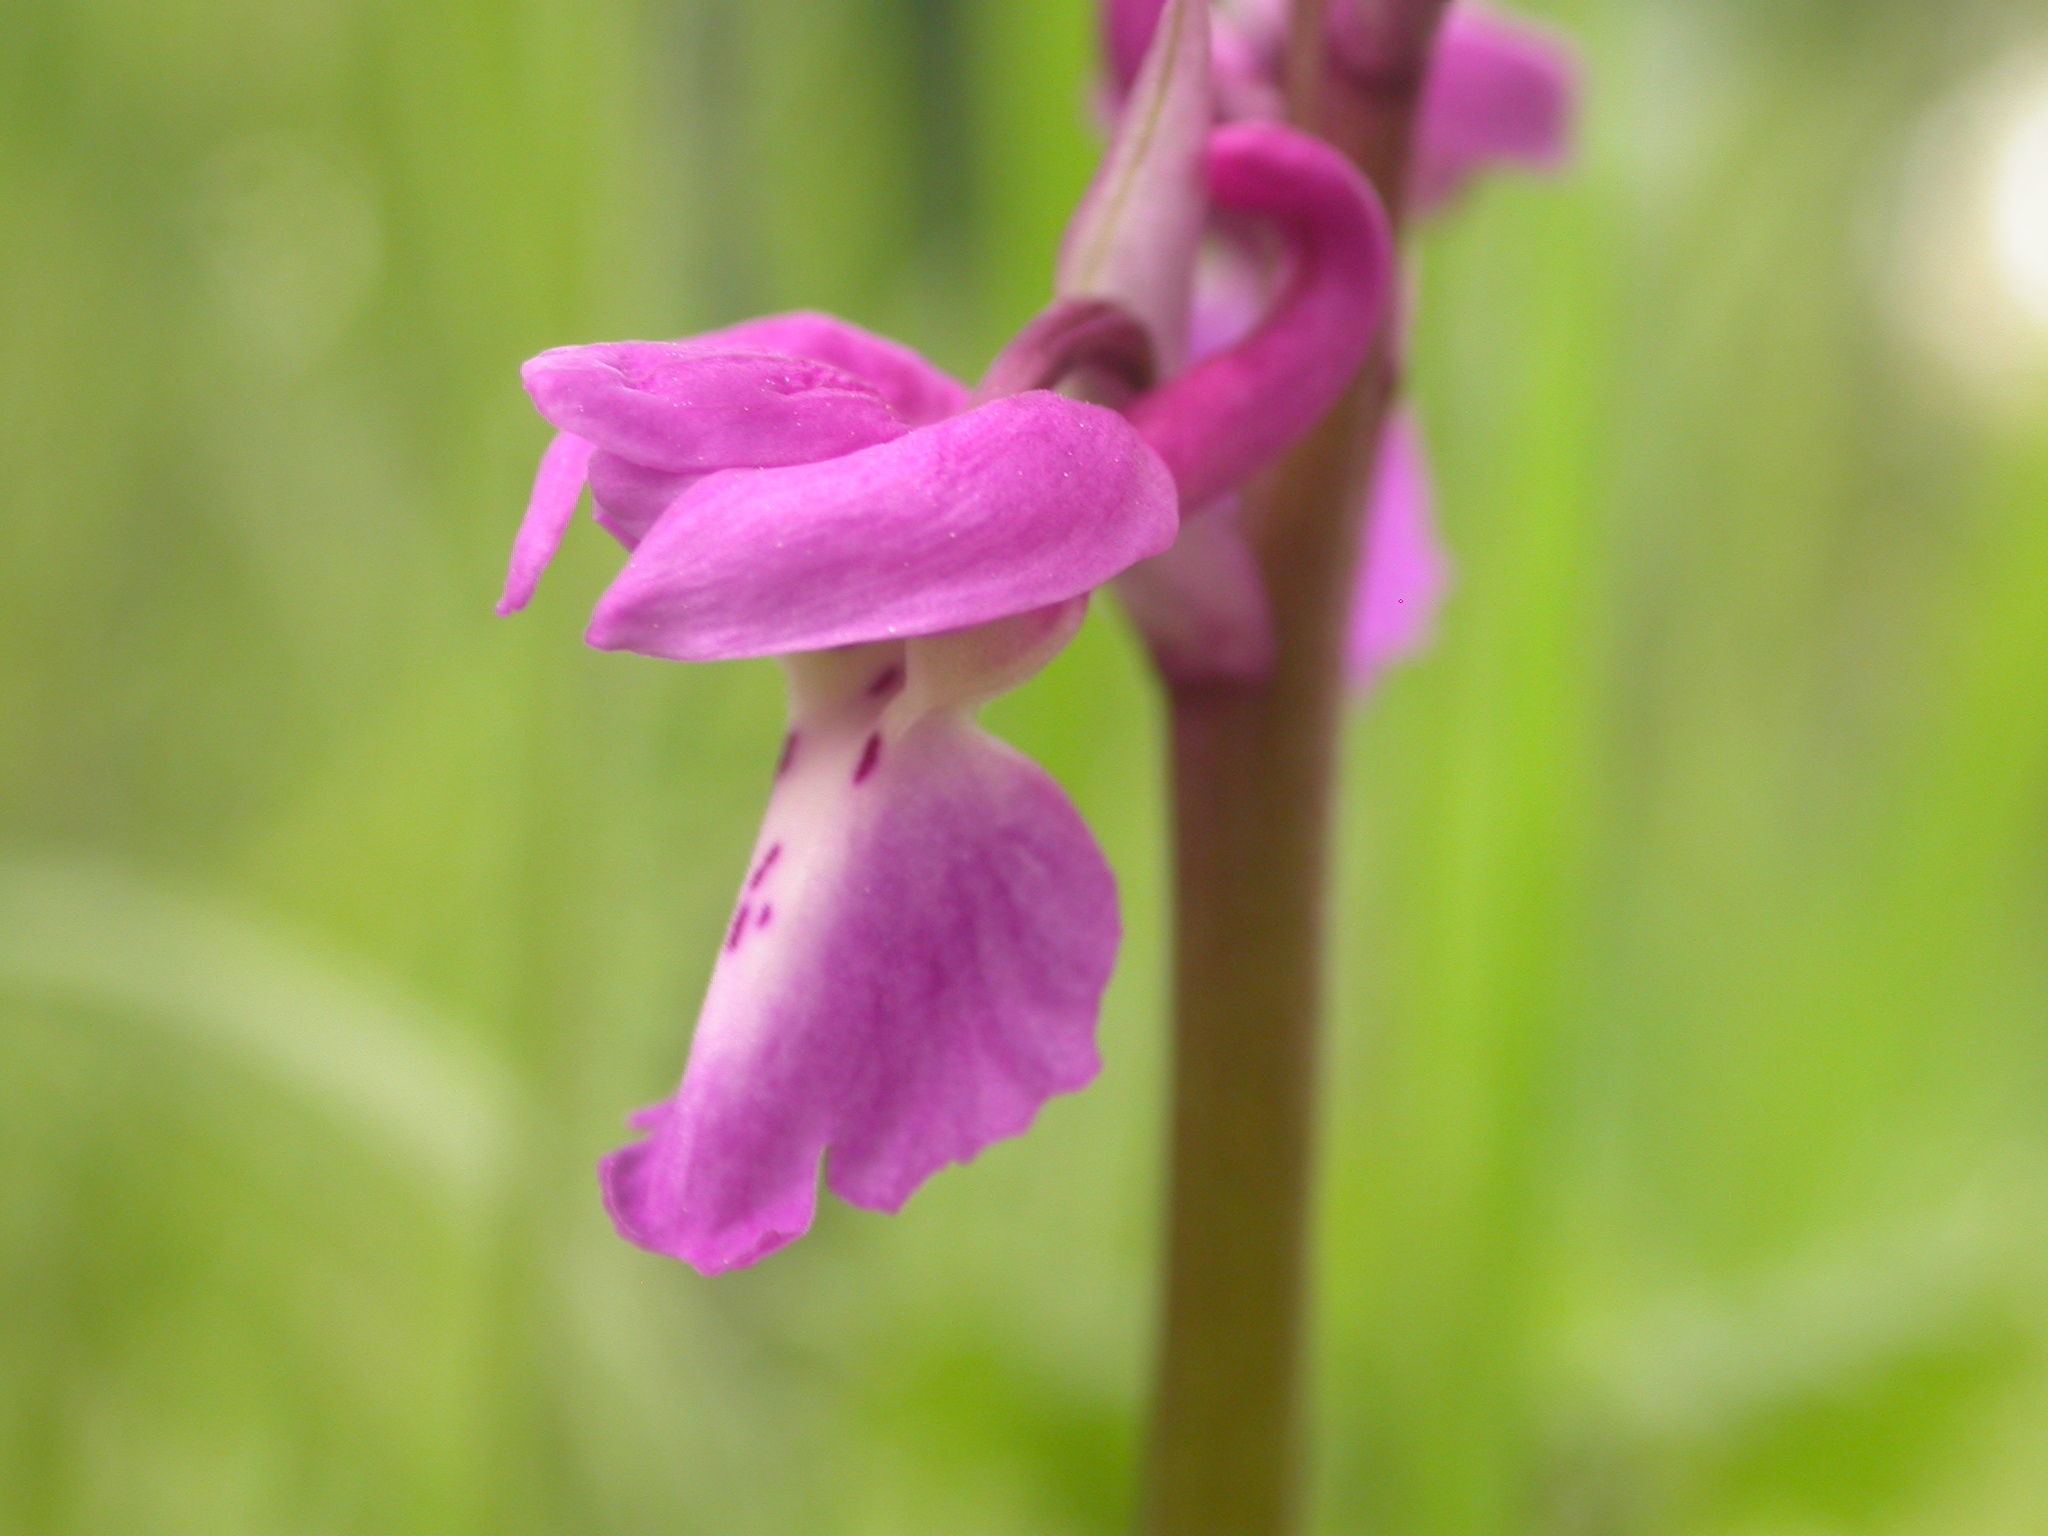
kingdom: Plantae
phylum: Tracheophyta
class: Liliopsida
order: Asparagales
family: Orchidaceae
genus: Orchis
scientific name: Orchis mascula
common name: Early-purple orchid
